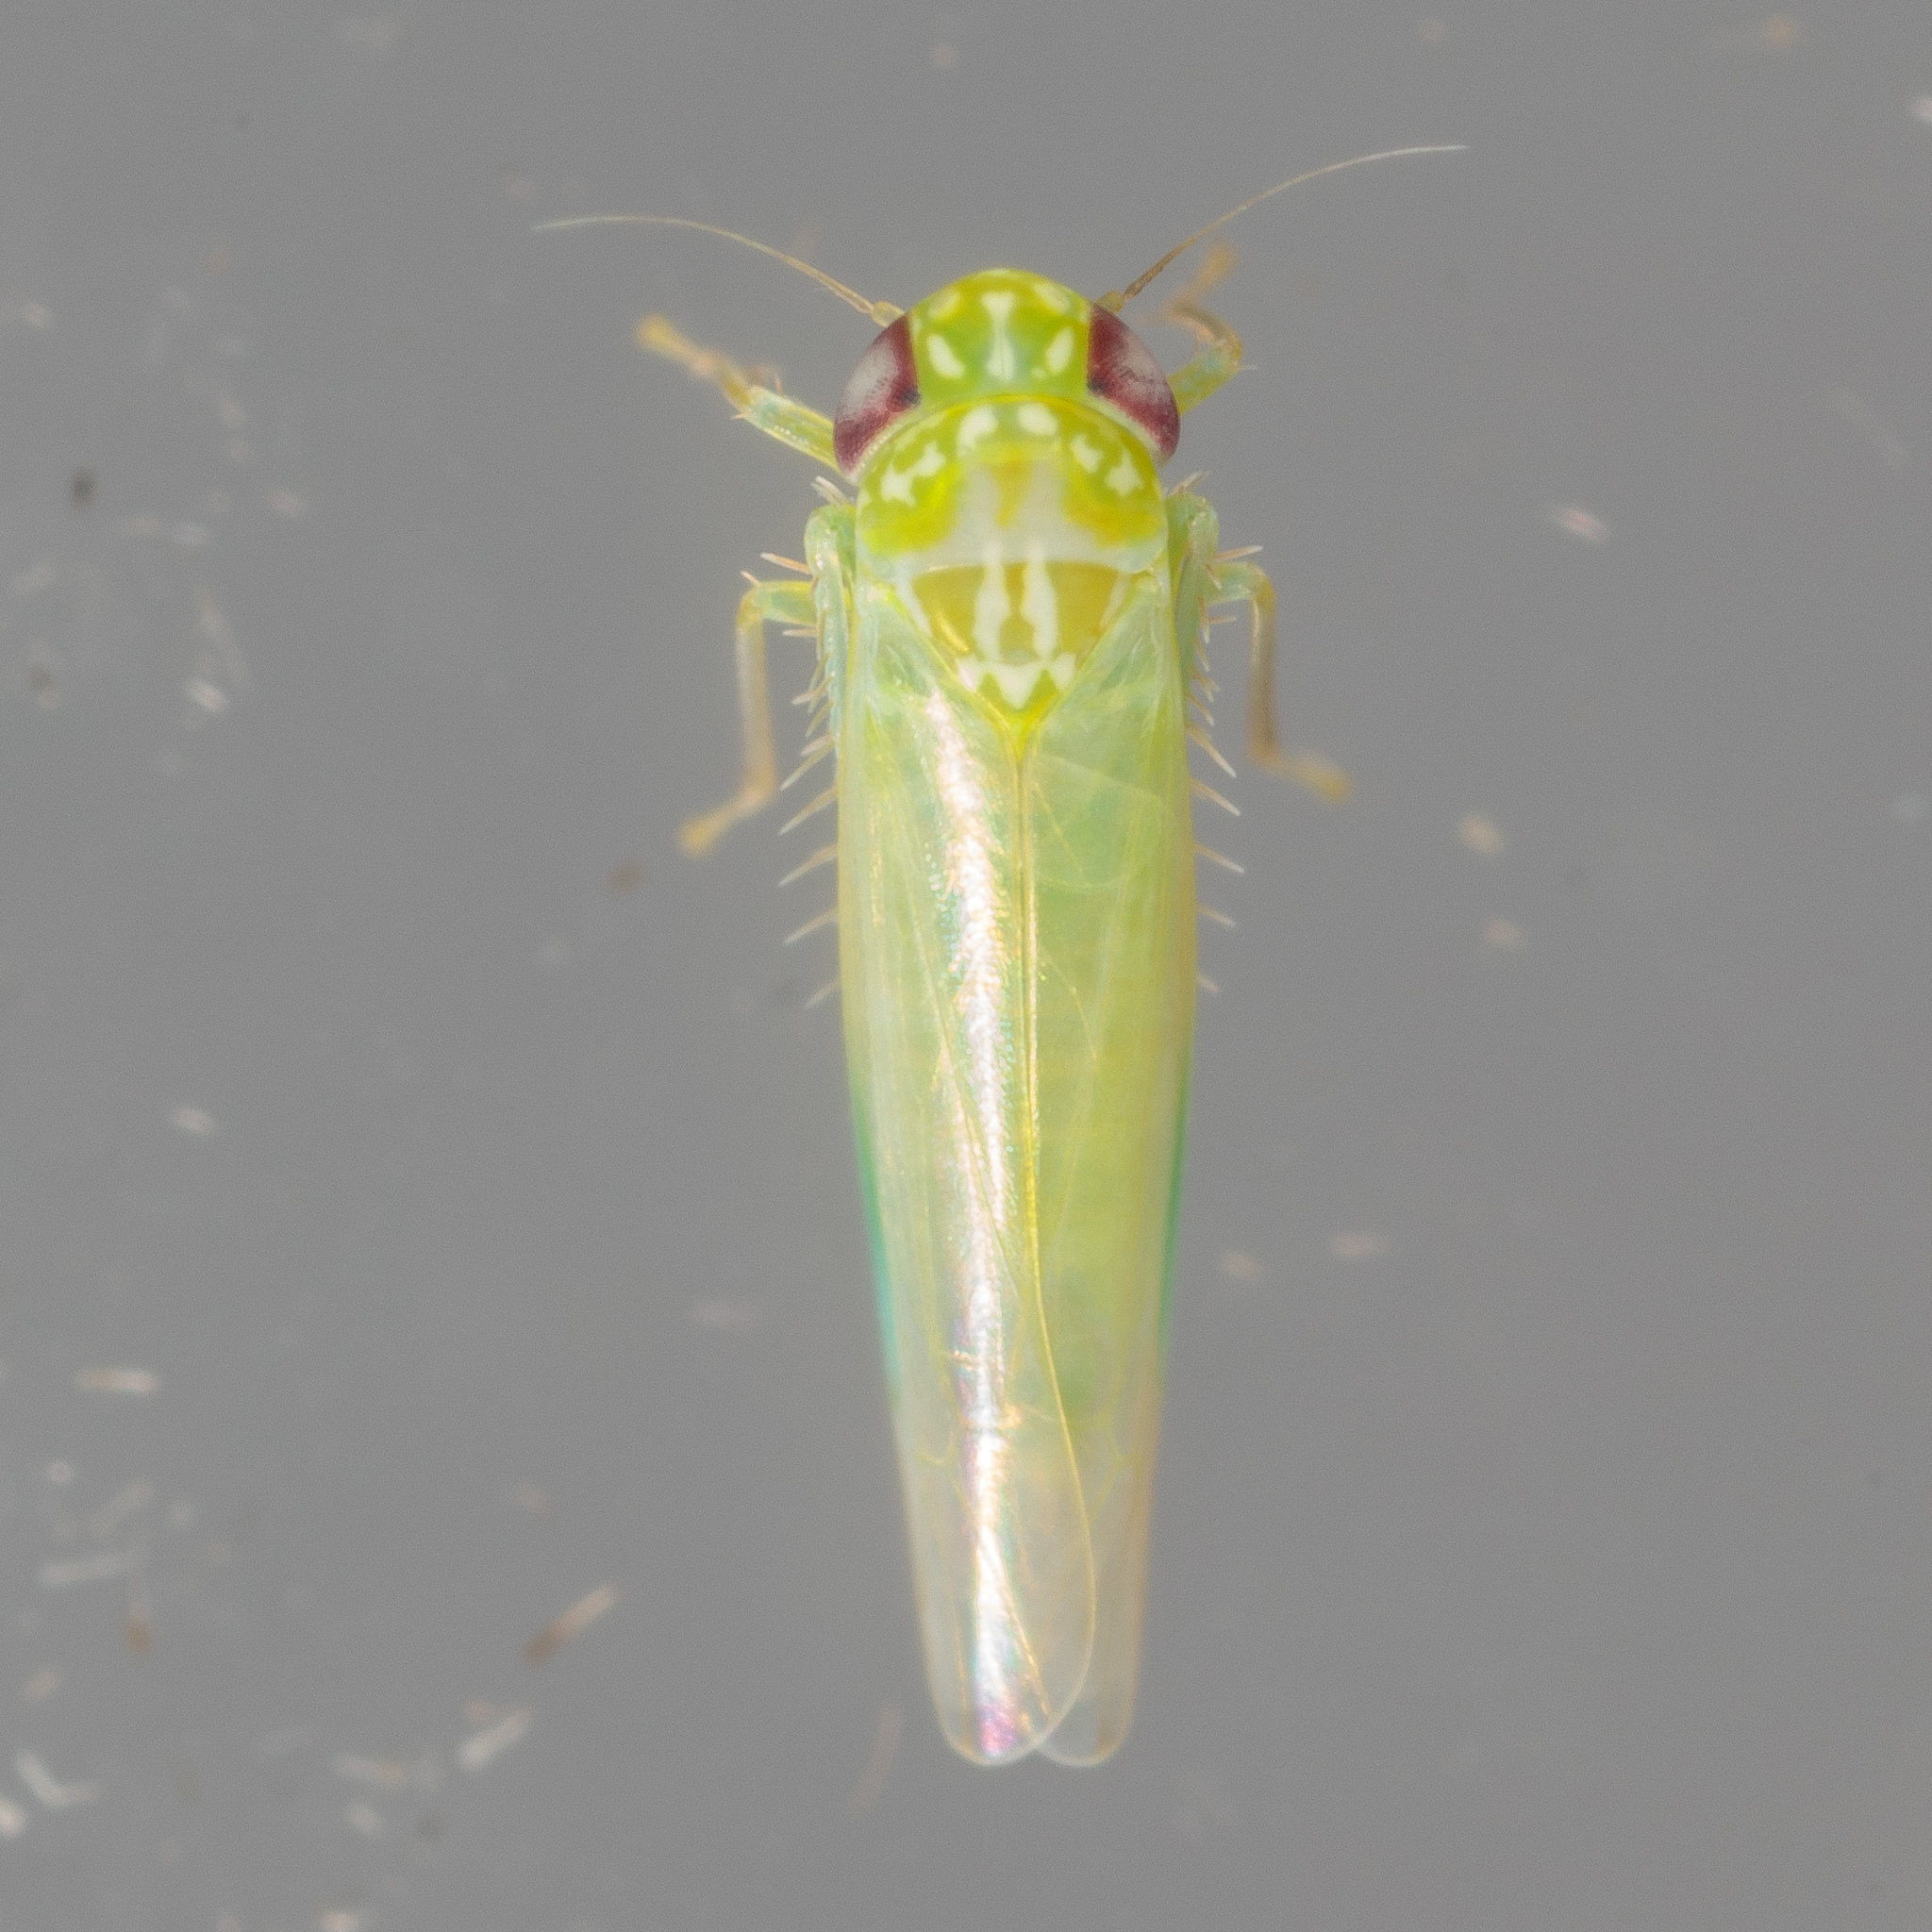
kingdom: Animalia
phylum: Arthropoda
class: Insecta
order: Hemiptera
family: Cicadellidae
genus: Empoasca
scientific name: Empoasca fabae
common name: Potato leafhopper
